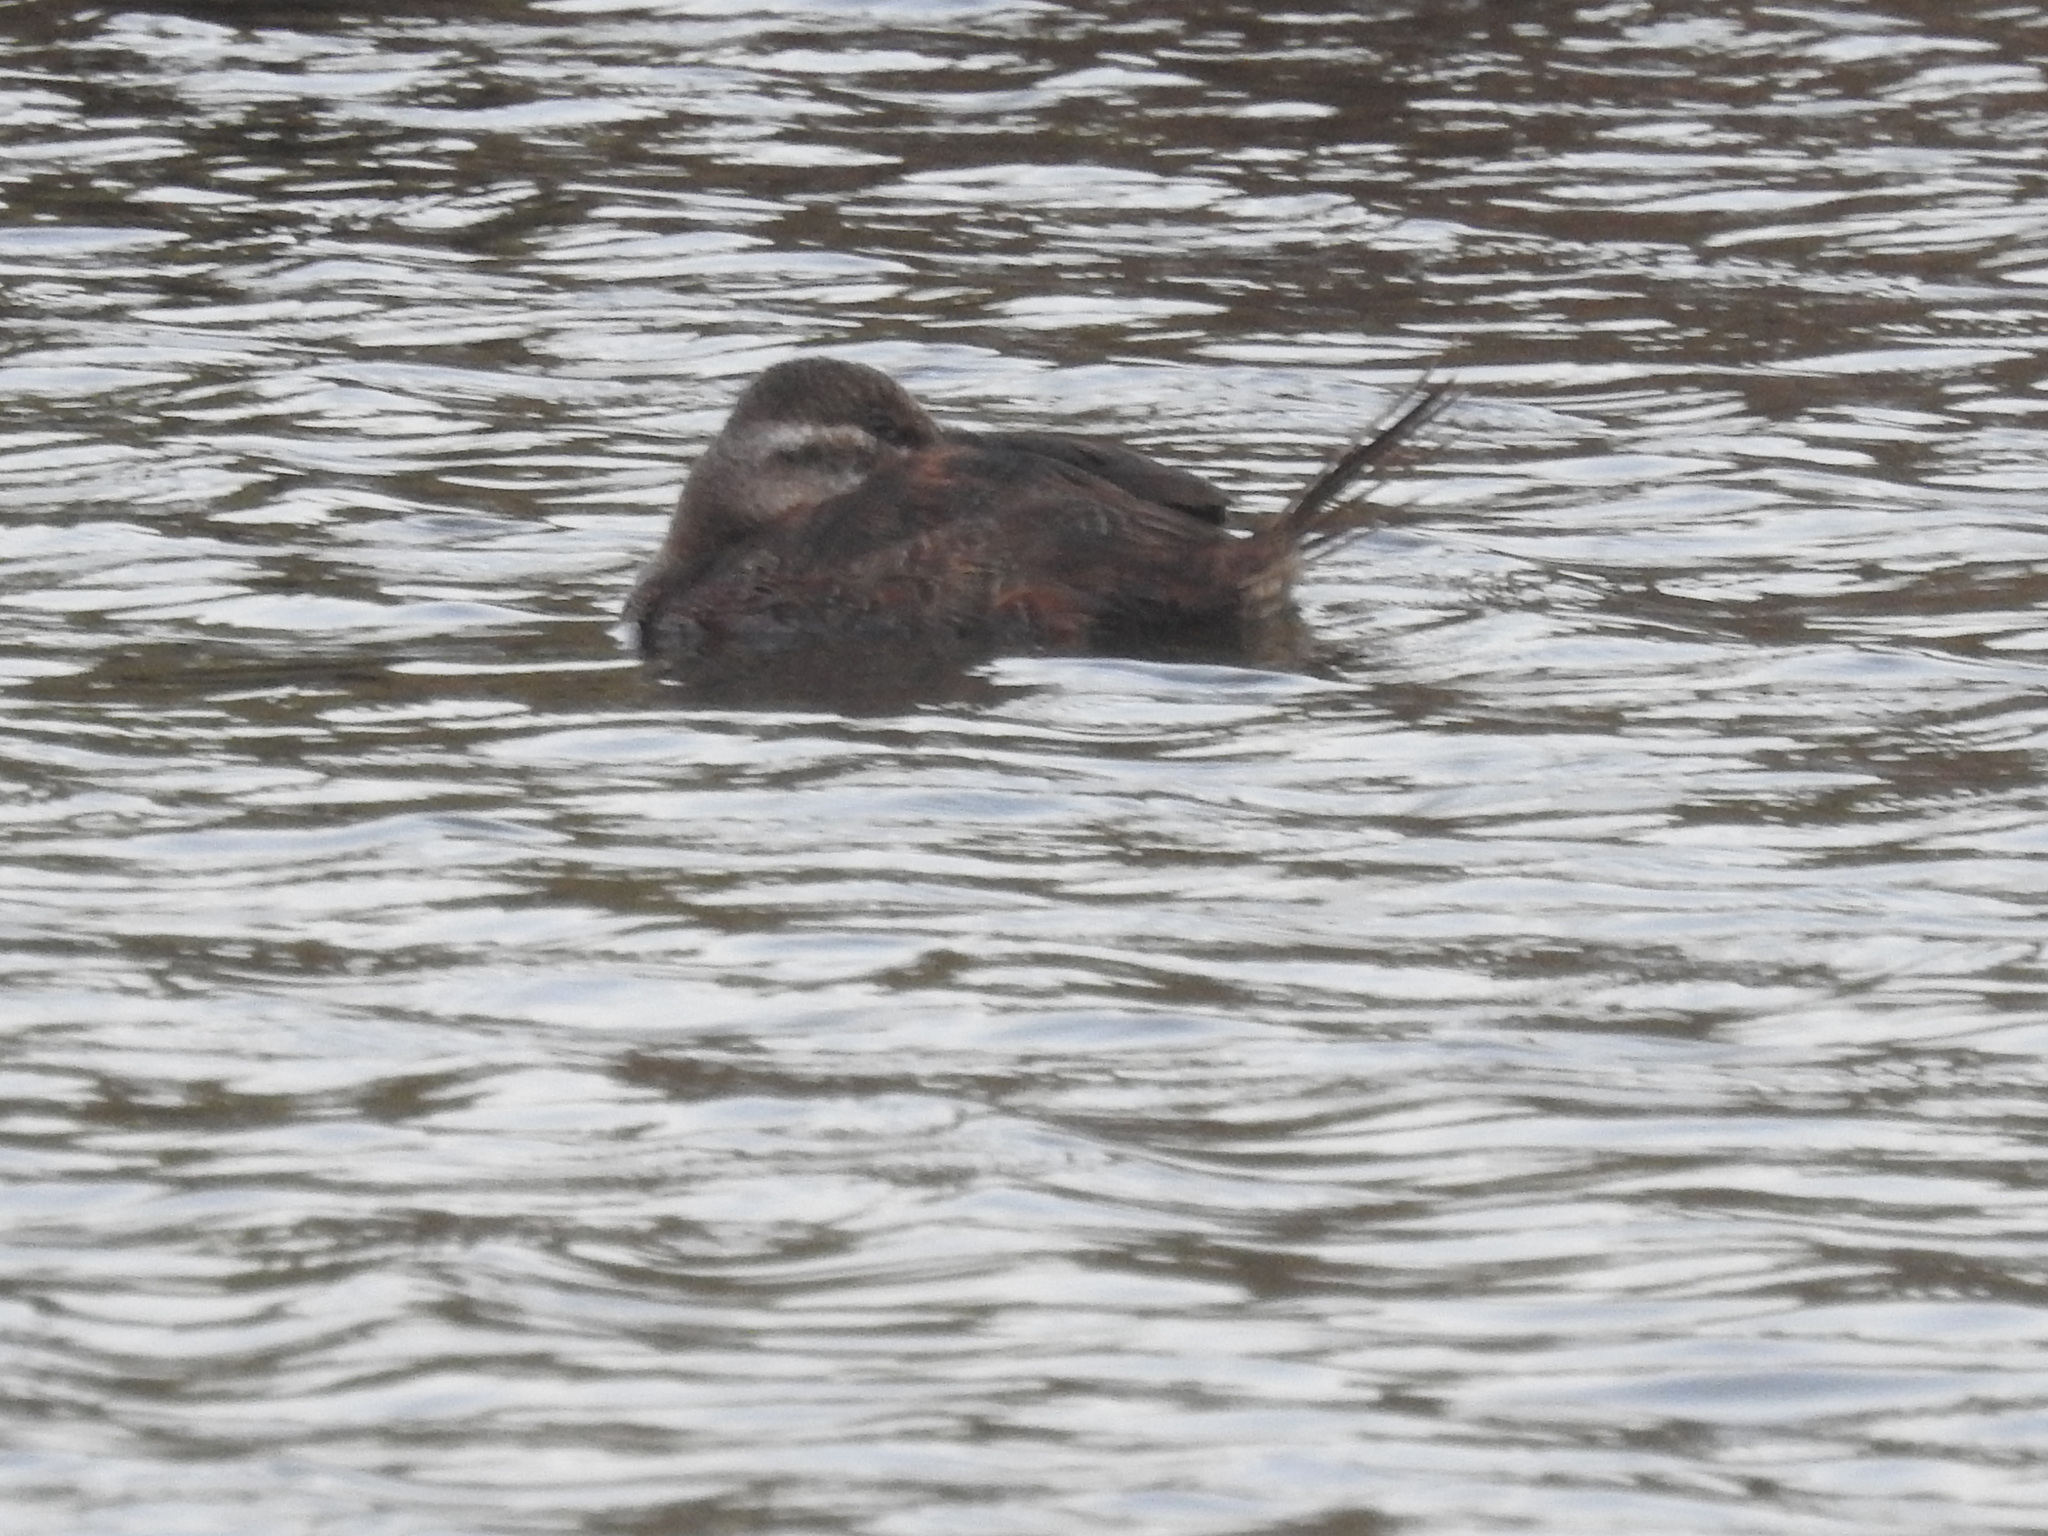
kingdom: Animalia
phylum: Chordata
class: Aves
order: Anseriformes
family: Anatidae
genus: Oxyura
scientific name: Oxyura vittata
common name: Lake duck
